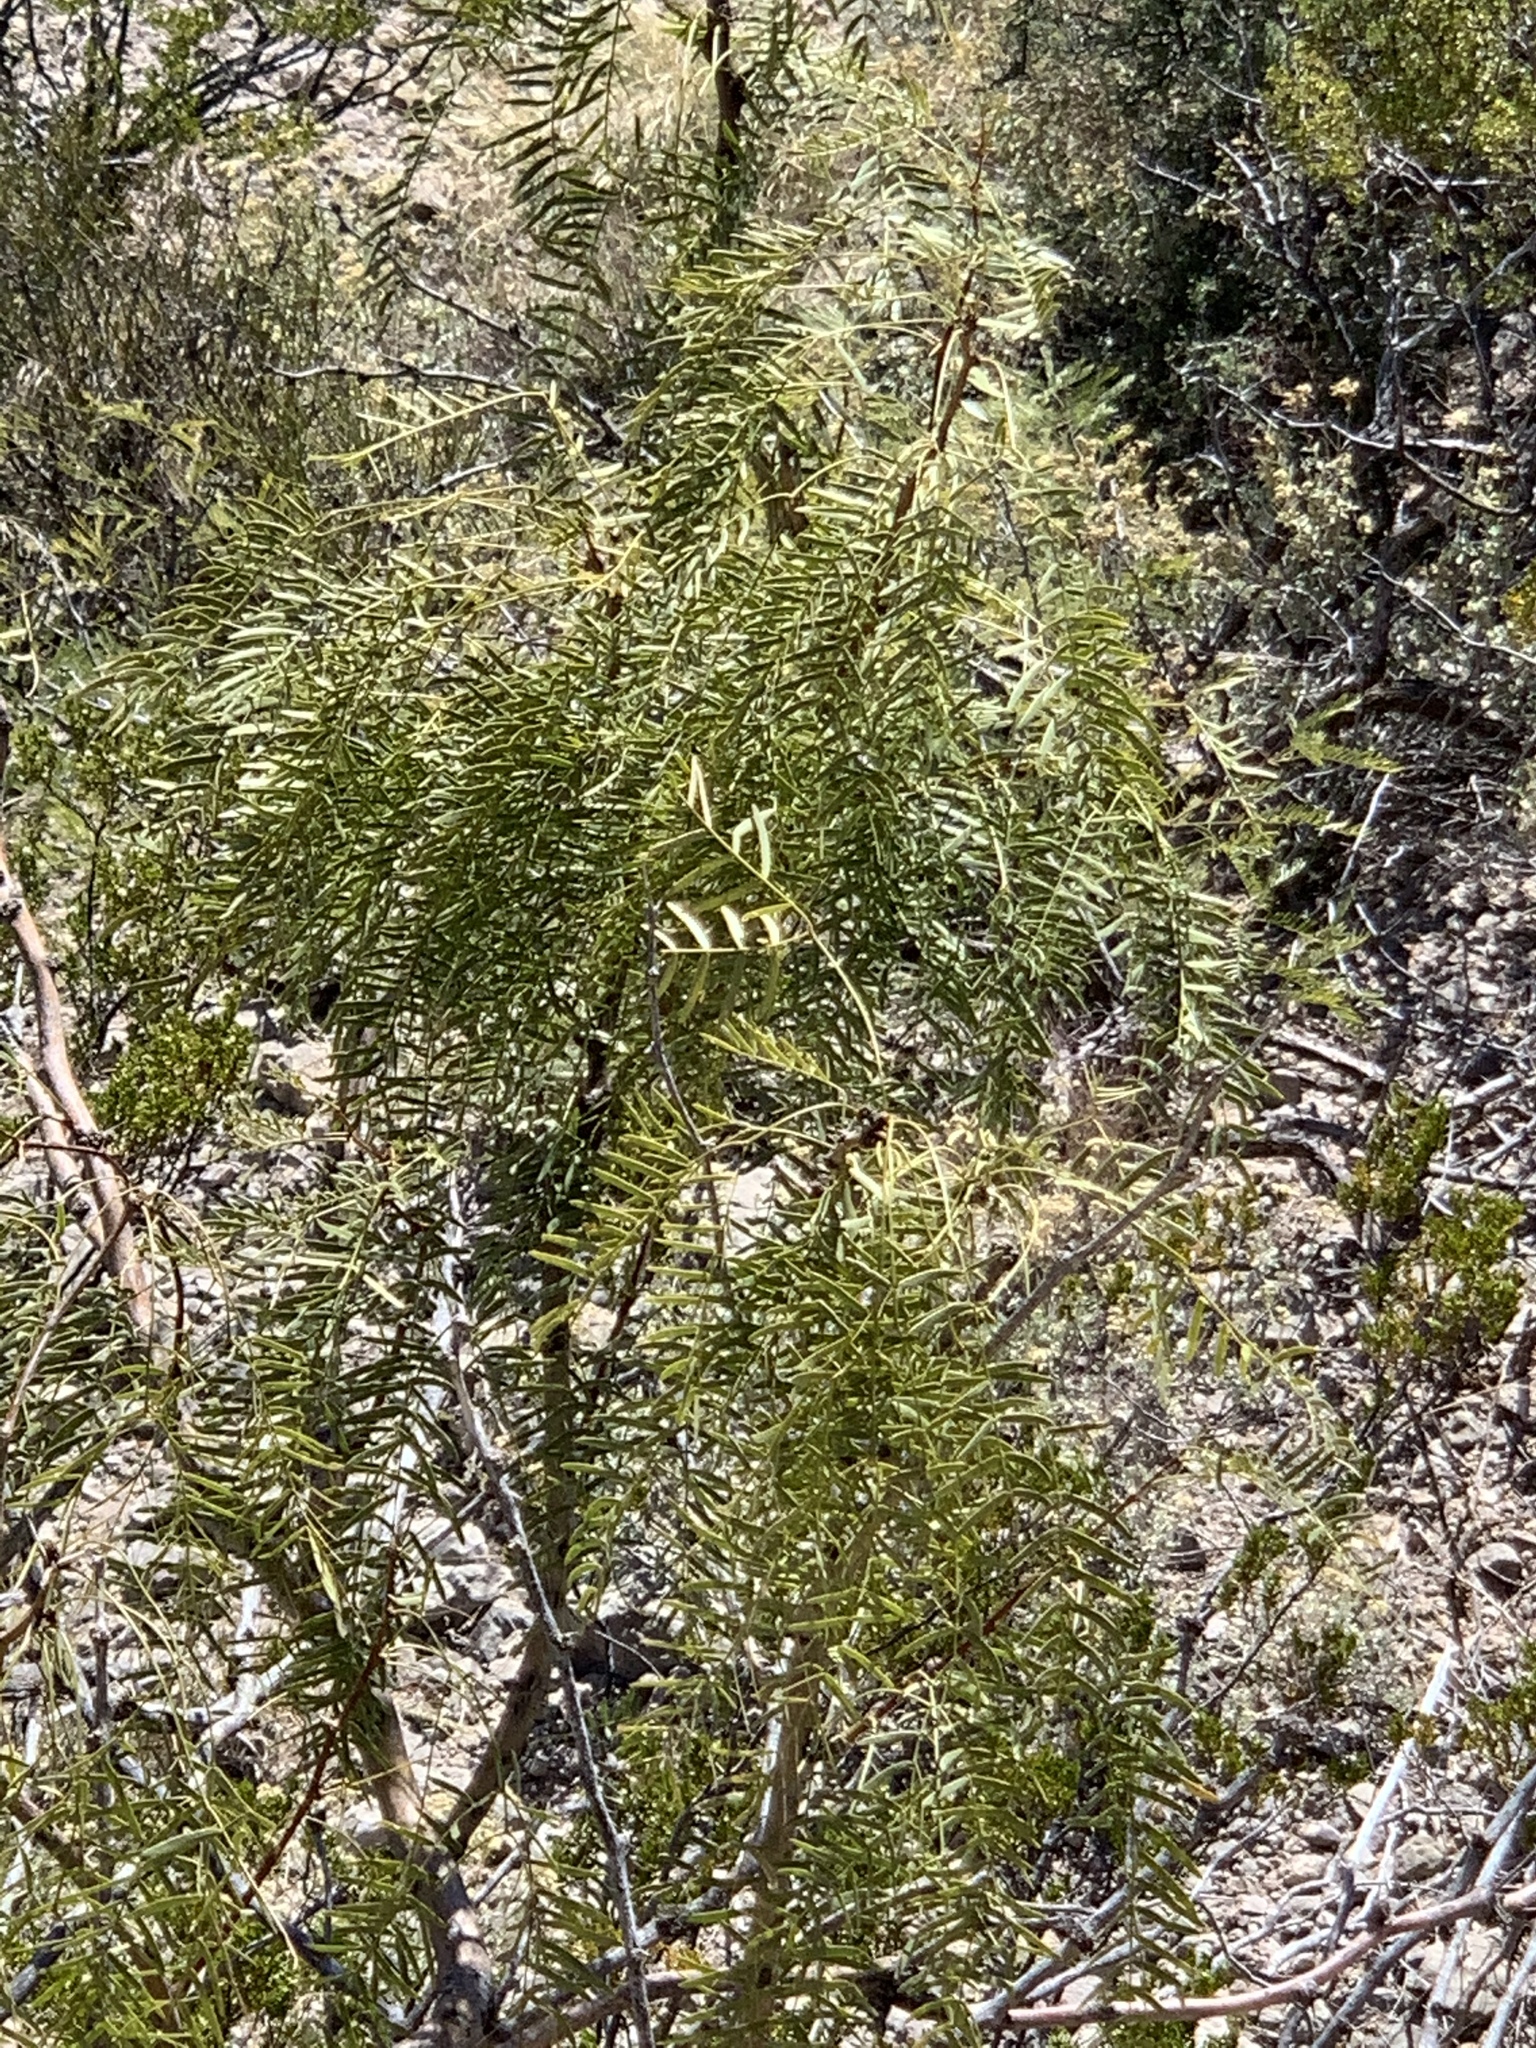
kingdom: Plantae
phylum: Tracheophyta
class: Magnoliopsida
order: Fabales
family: Fabaceae
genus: Prosopis
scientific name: Prosopis glandulosa
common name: Honey mesquite
